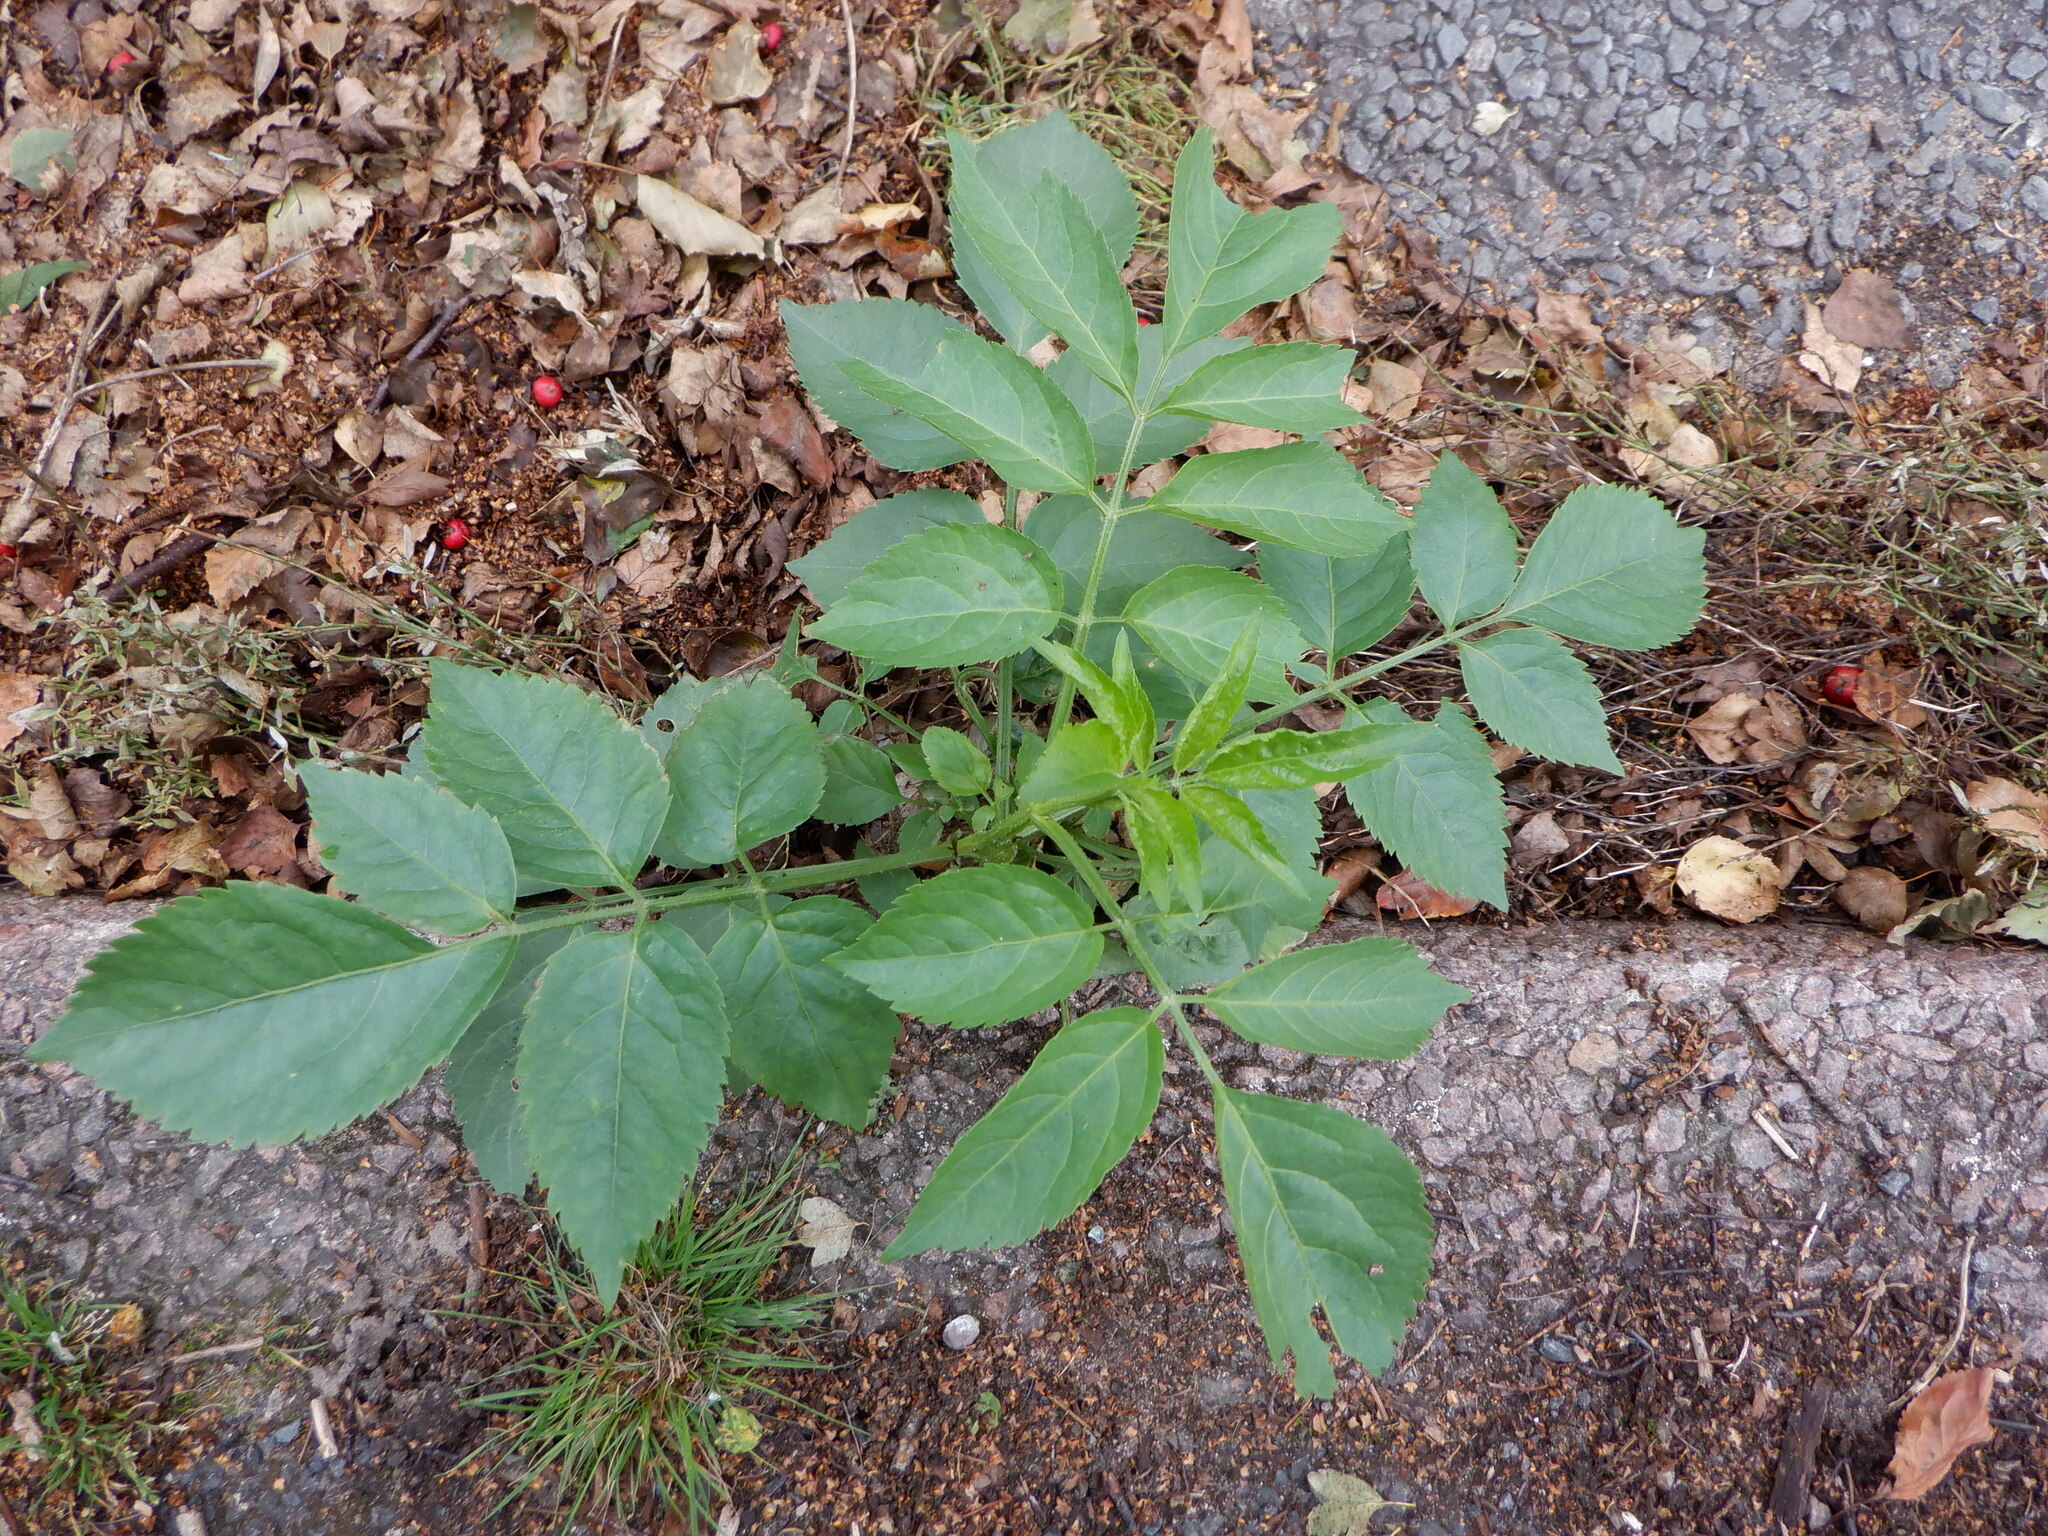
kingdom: Plantae
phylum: Tracheophyta
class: Magnoliopsida
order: Dipsacales
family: Viburnaceae
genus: Sambucus
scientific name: Sambucus nigra
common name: Elder
